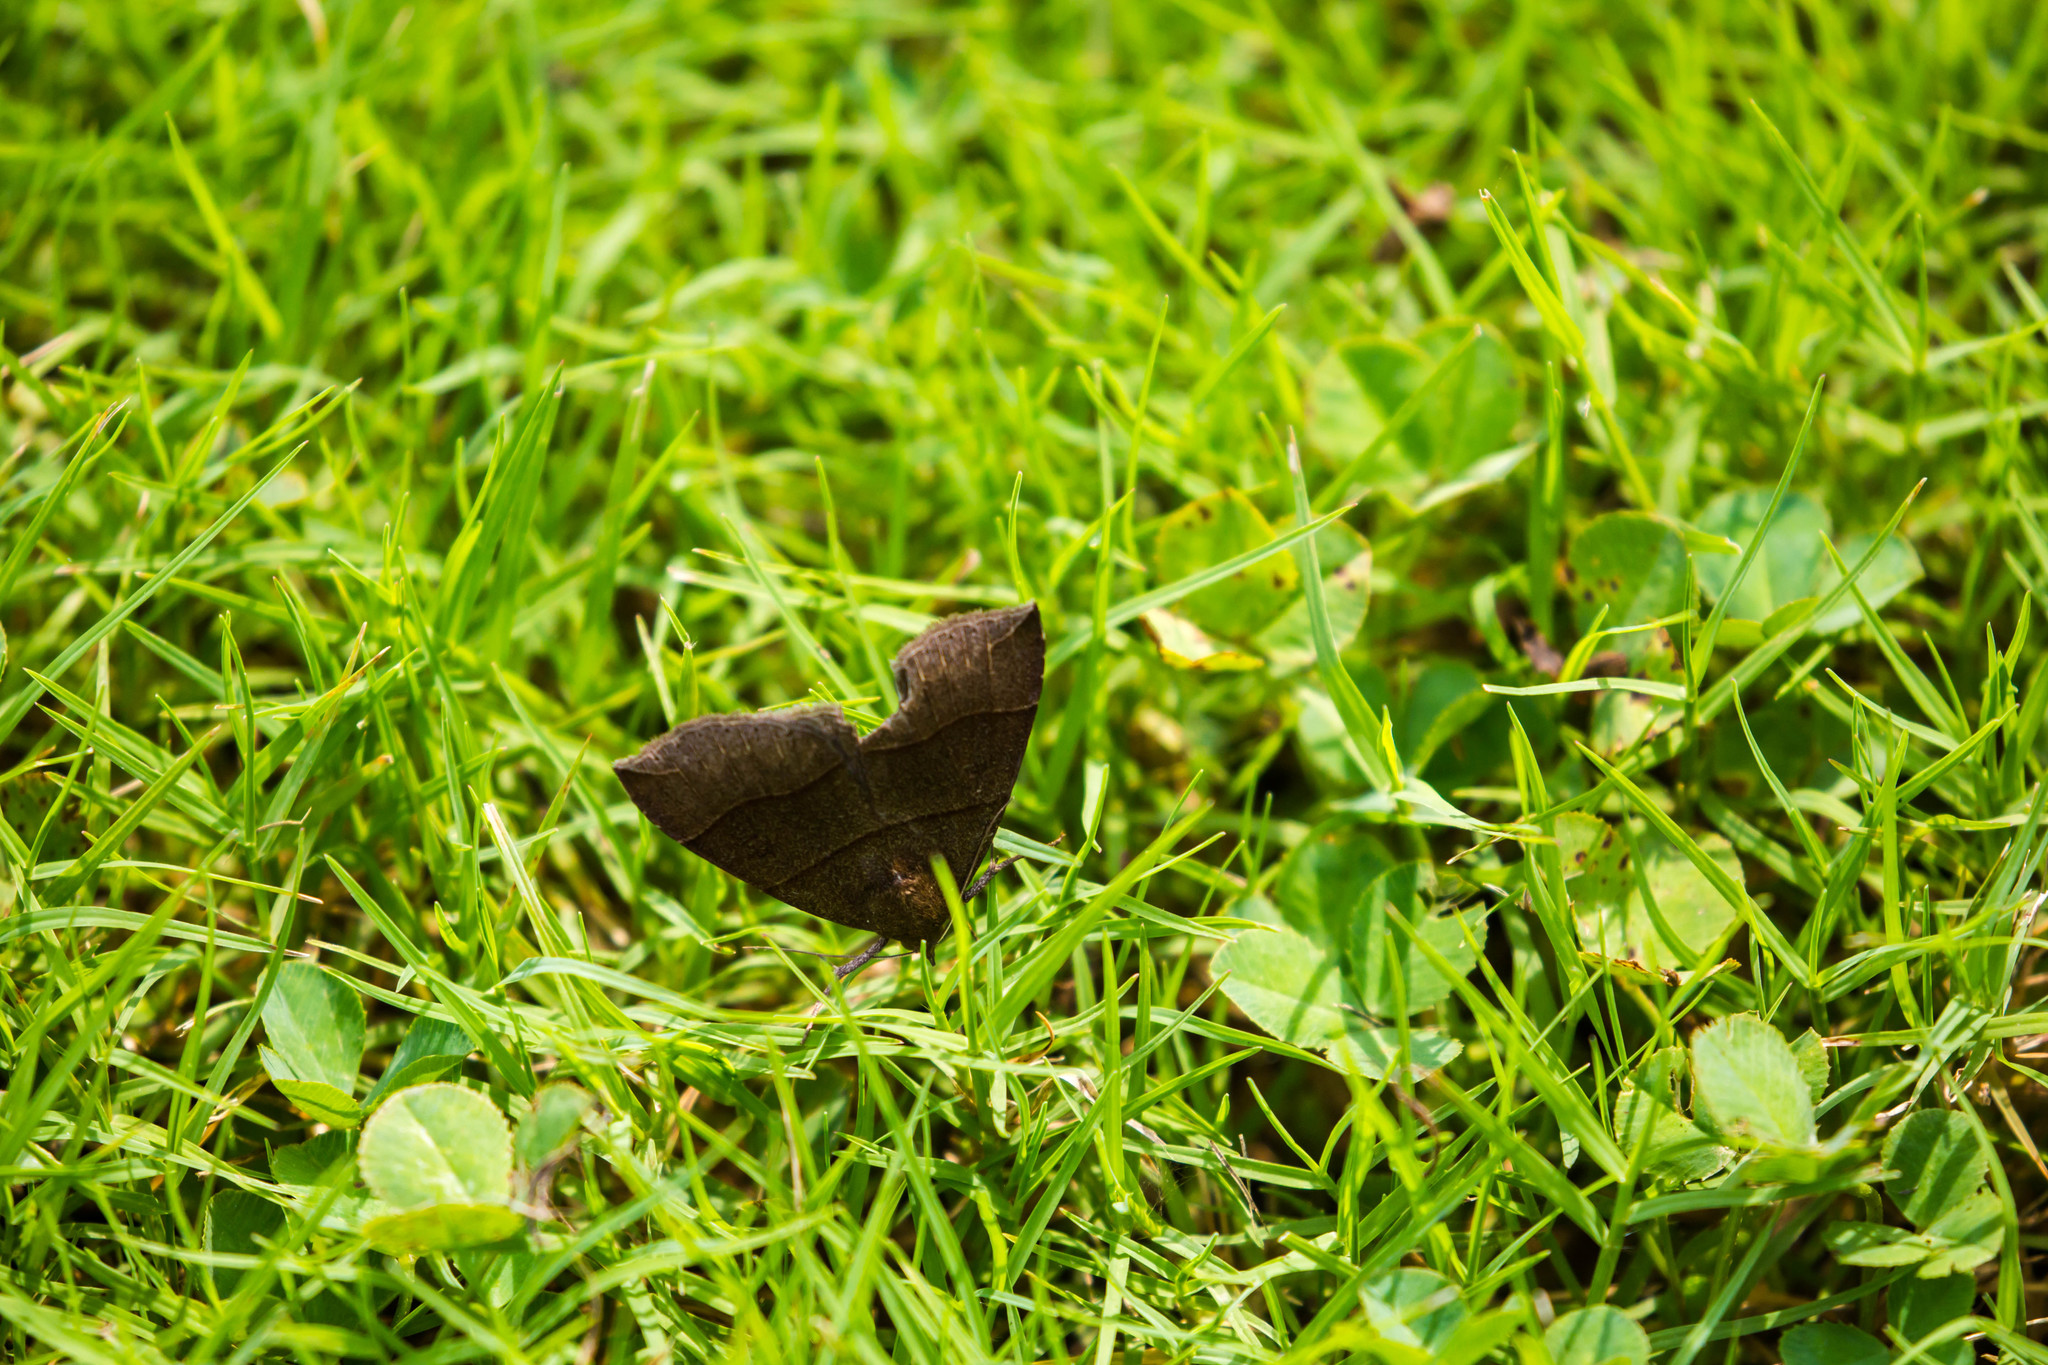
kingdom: Animalia
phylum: Arthropoda
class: Insecta
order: Lepidoptera
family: Erebidae
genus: Parallelia
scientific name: Parallelia bistriaris
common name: Maple looper moth
